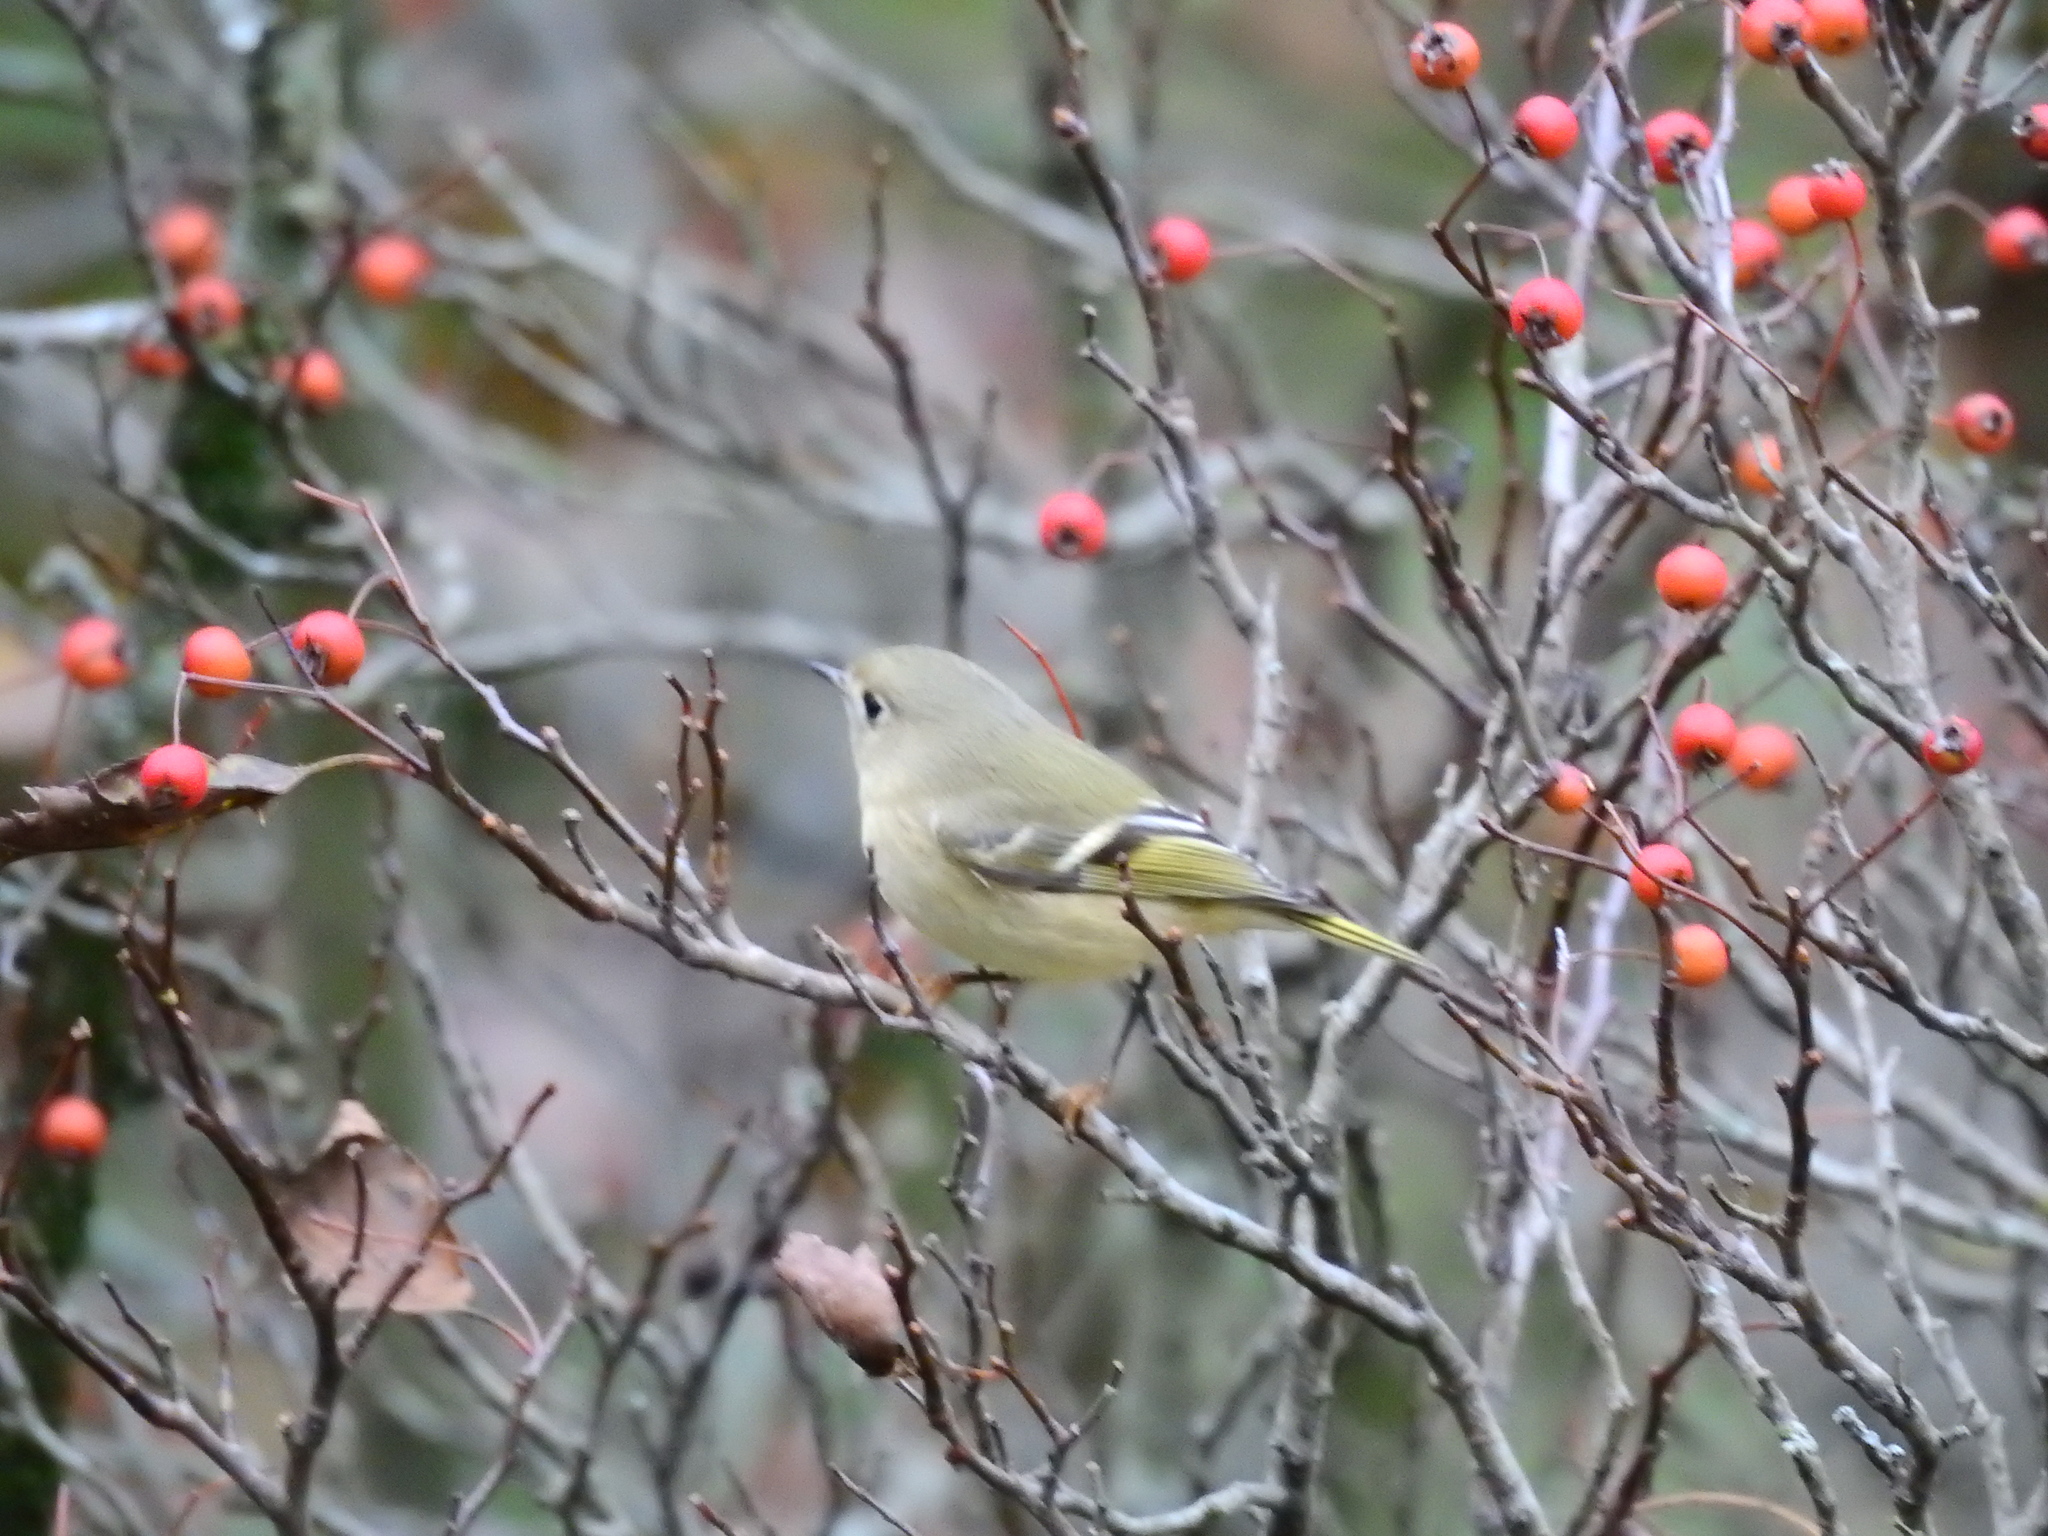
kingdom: Animalia
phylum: Chordata
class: Aves
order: Passeriformes
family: Regulidae
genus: Regulus
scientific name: Regulus calendula
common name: Ruby-crowned kinglet
